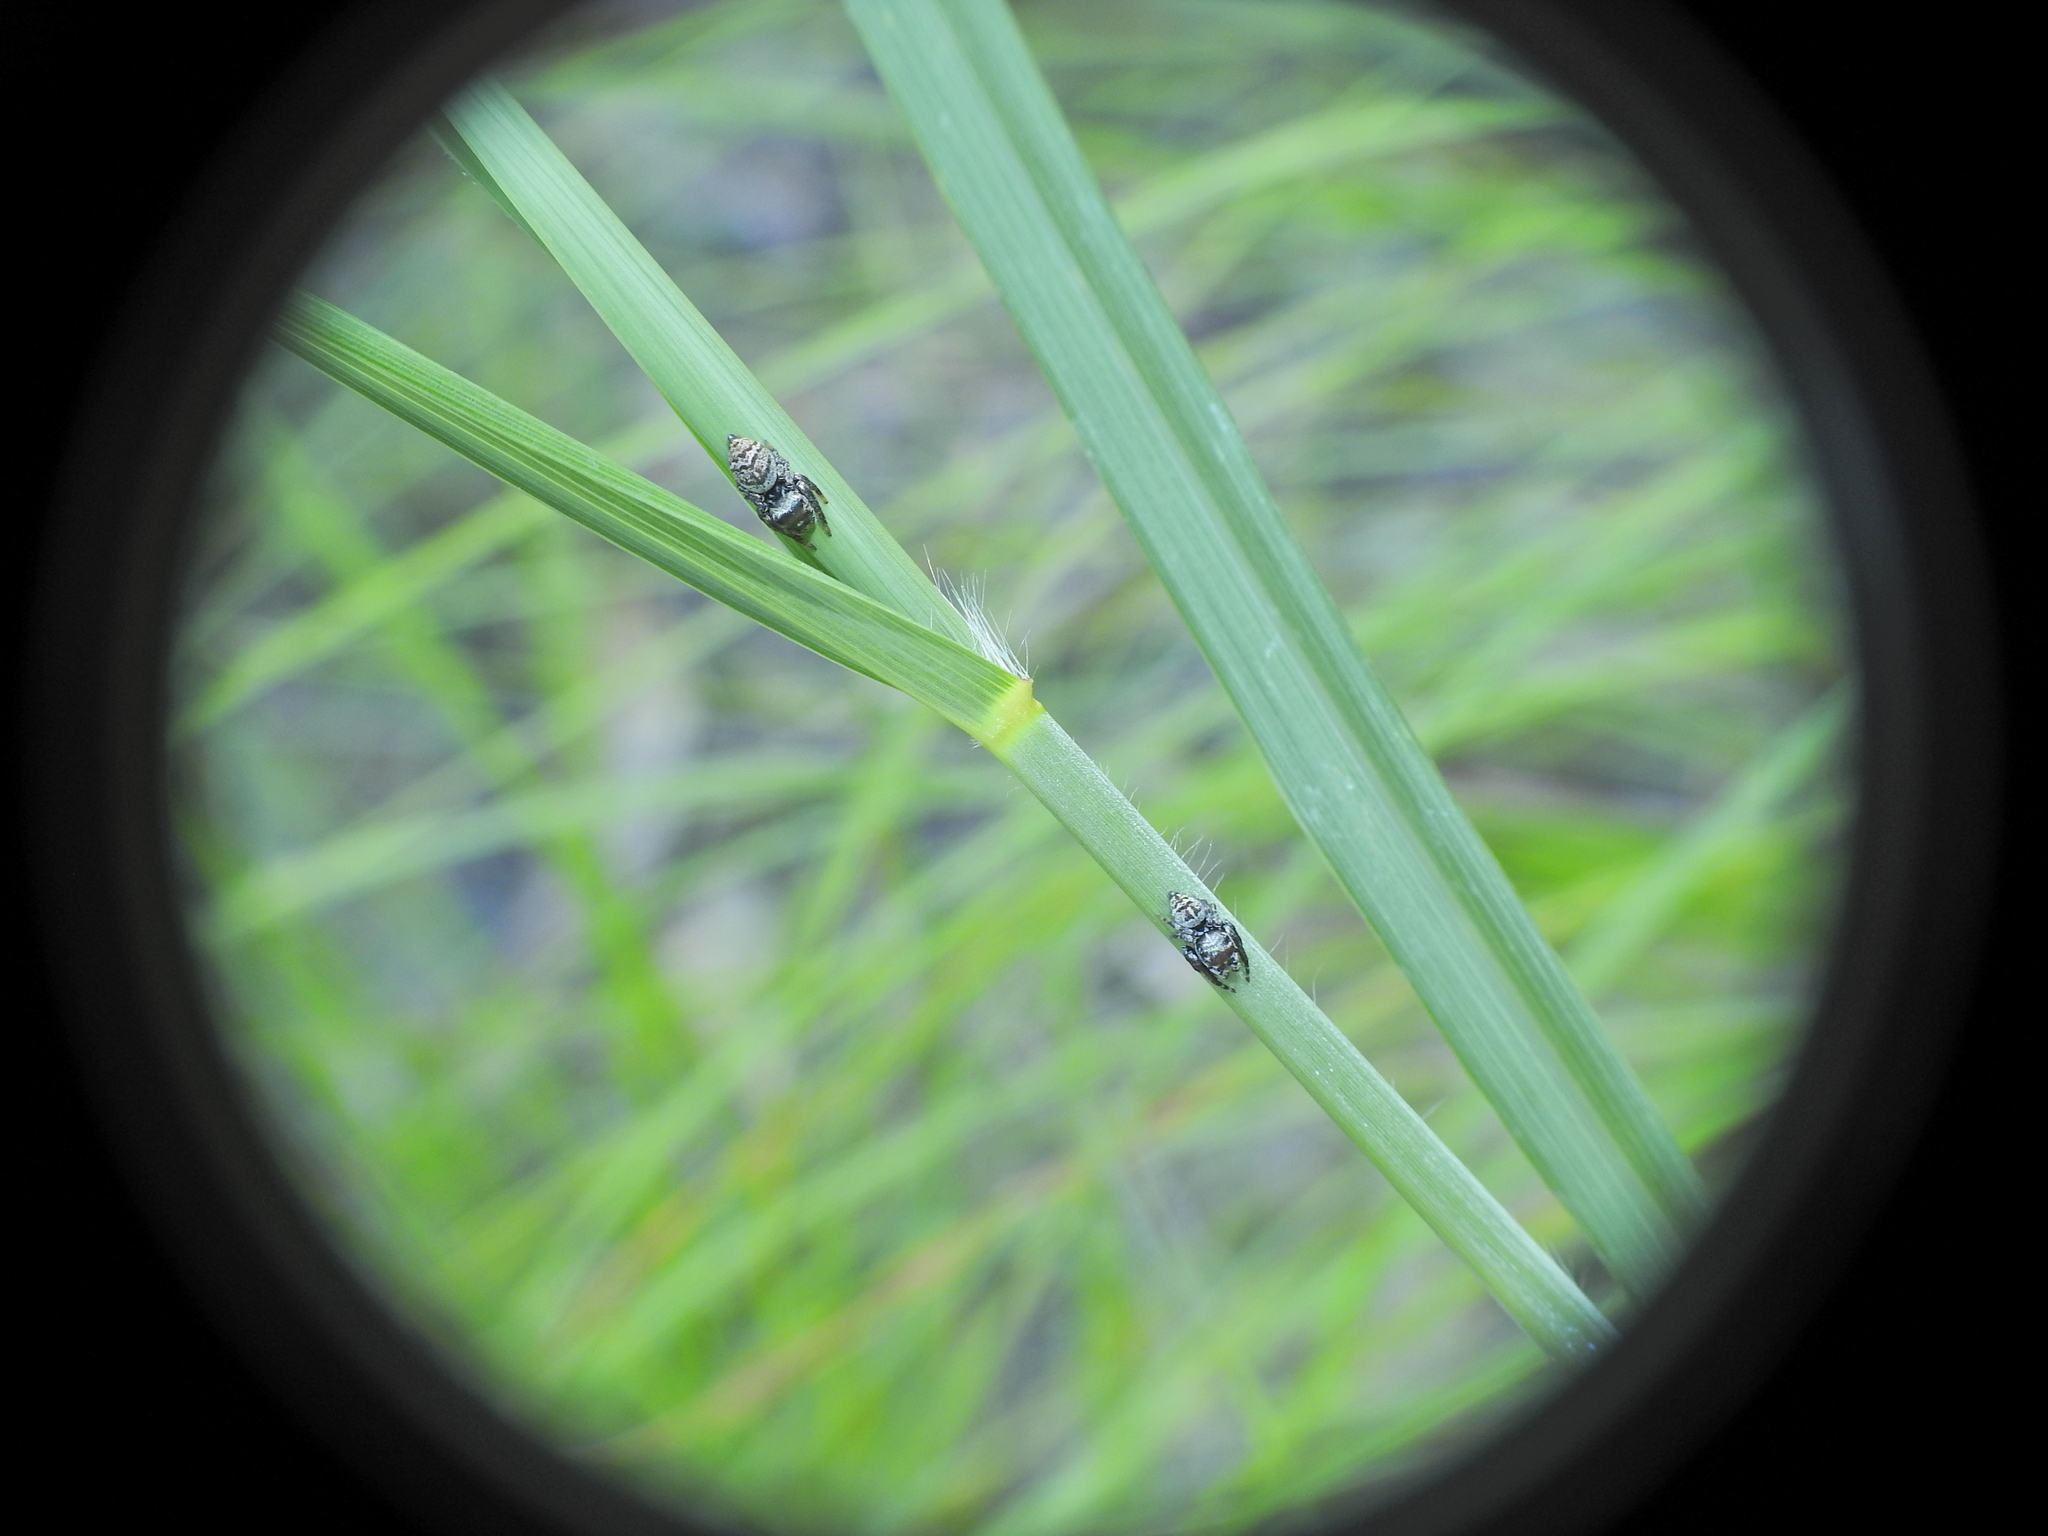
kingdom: Animalia
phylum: Arthropoda
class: Arachnida
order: Araneae
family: Salticidae
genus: Euryattus
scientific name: Euryattus bleekeri
